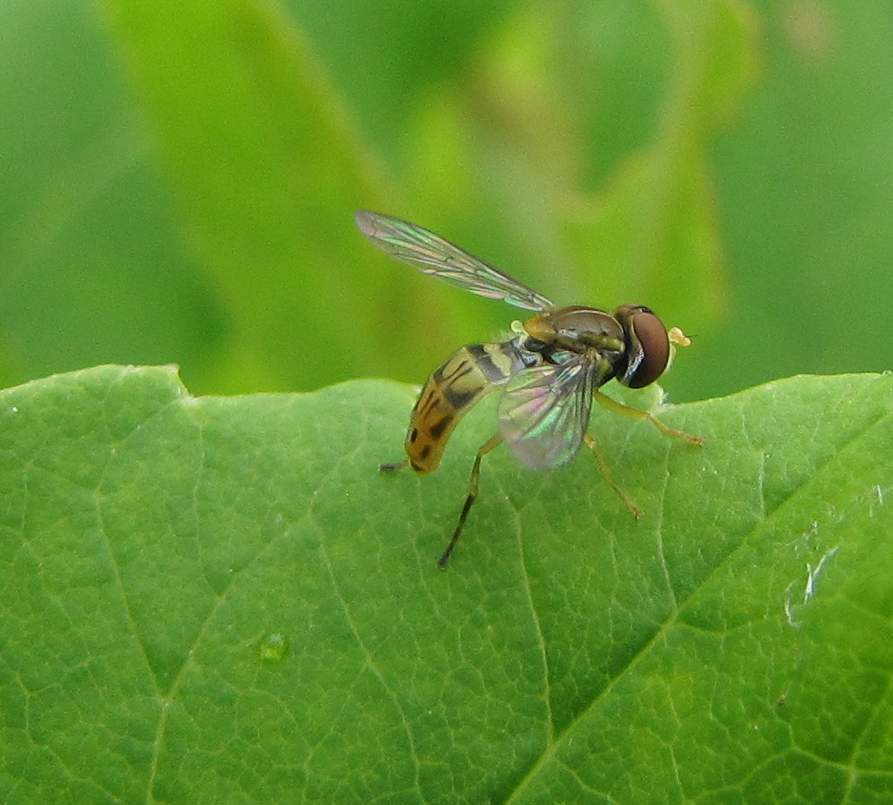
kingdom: Animalia
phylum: Arthropoda
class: Insecta
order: Diptera
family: Syrphidae
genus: Toxomerus
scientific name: Toxomerus marginatus
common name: Syrphid fly
